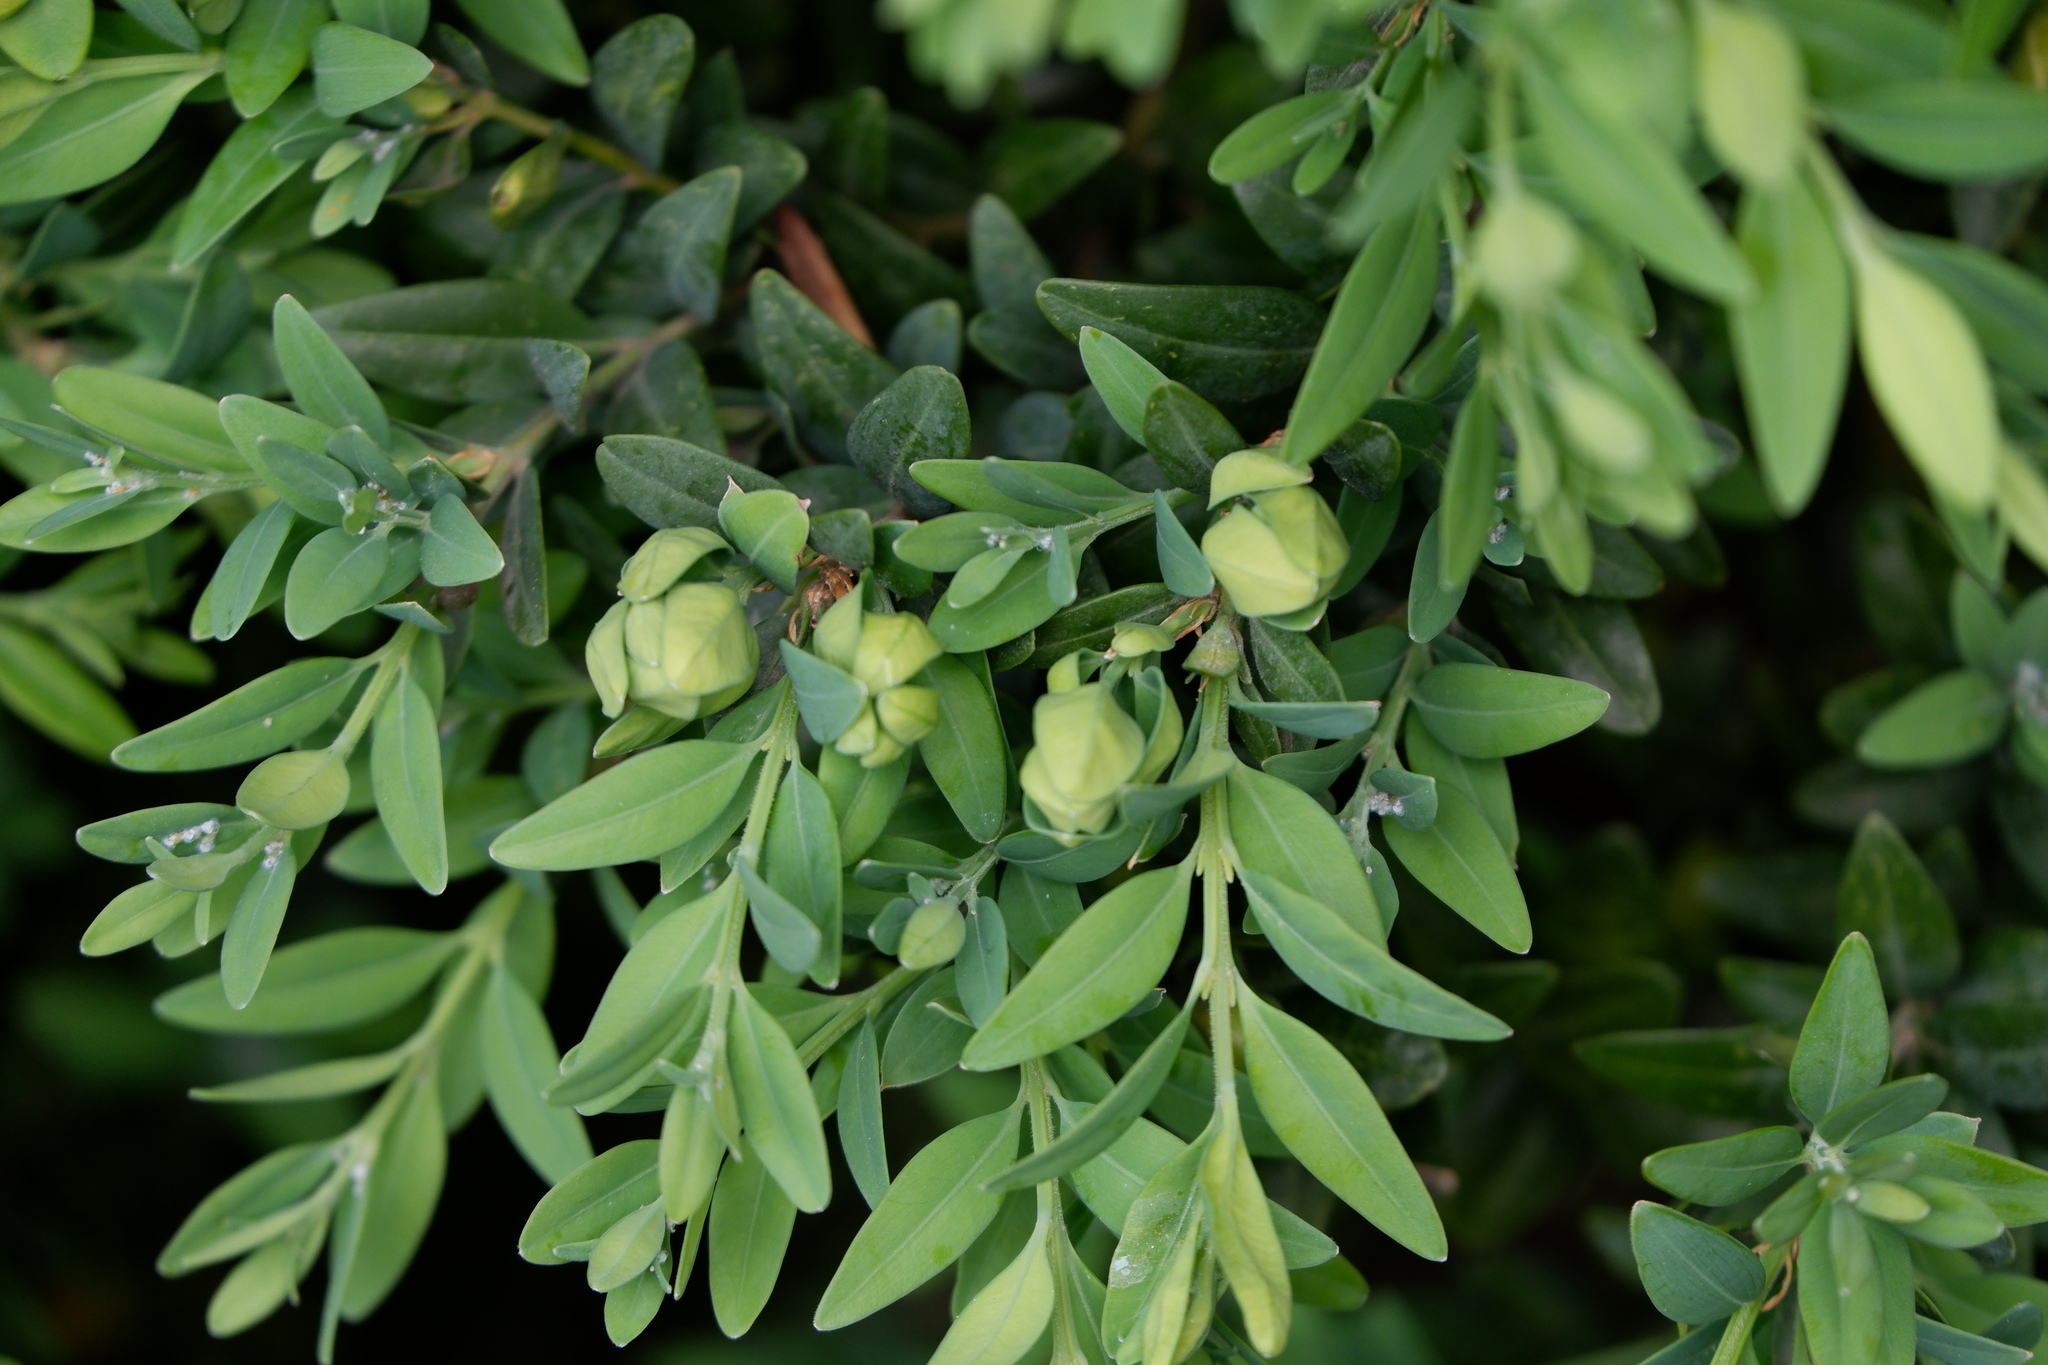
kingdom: Animalia
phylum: Arthropoda
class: Insecta
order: Hemiptera
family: Psyllidae
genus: Psylla
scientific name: Psylla buxi
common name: Boxwood psyllid
